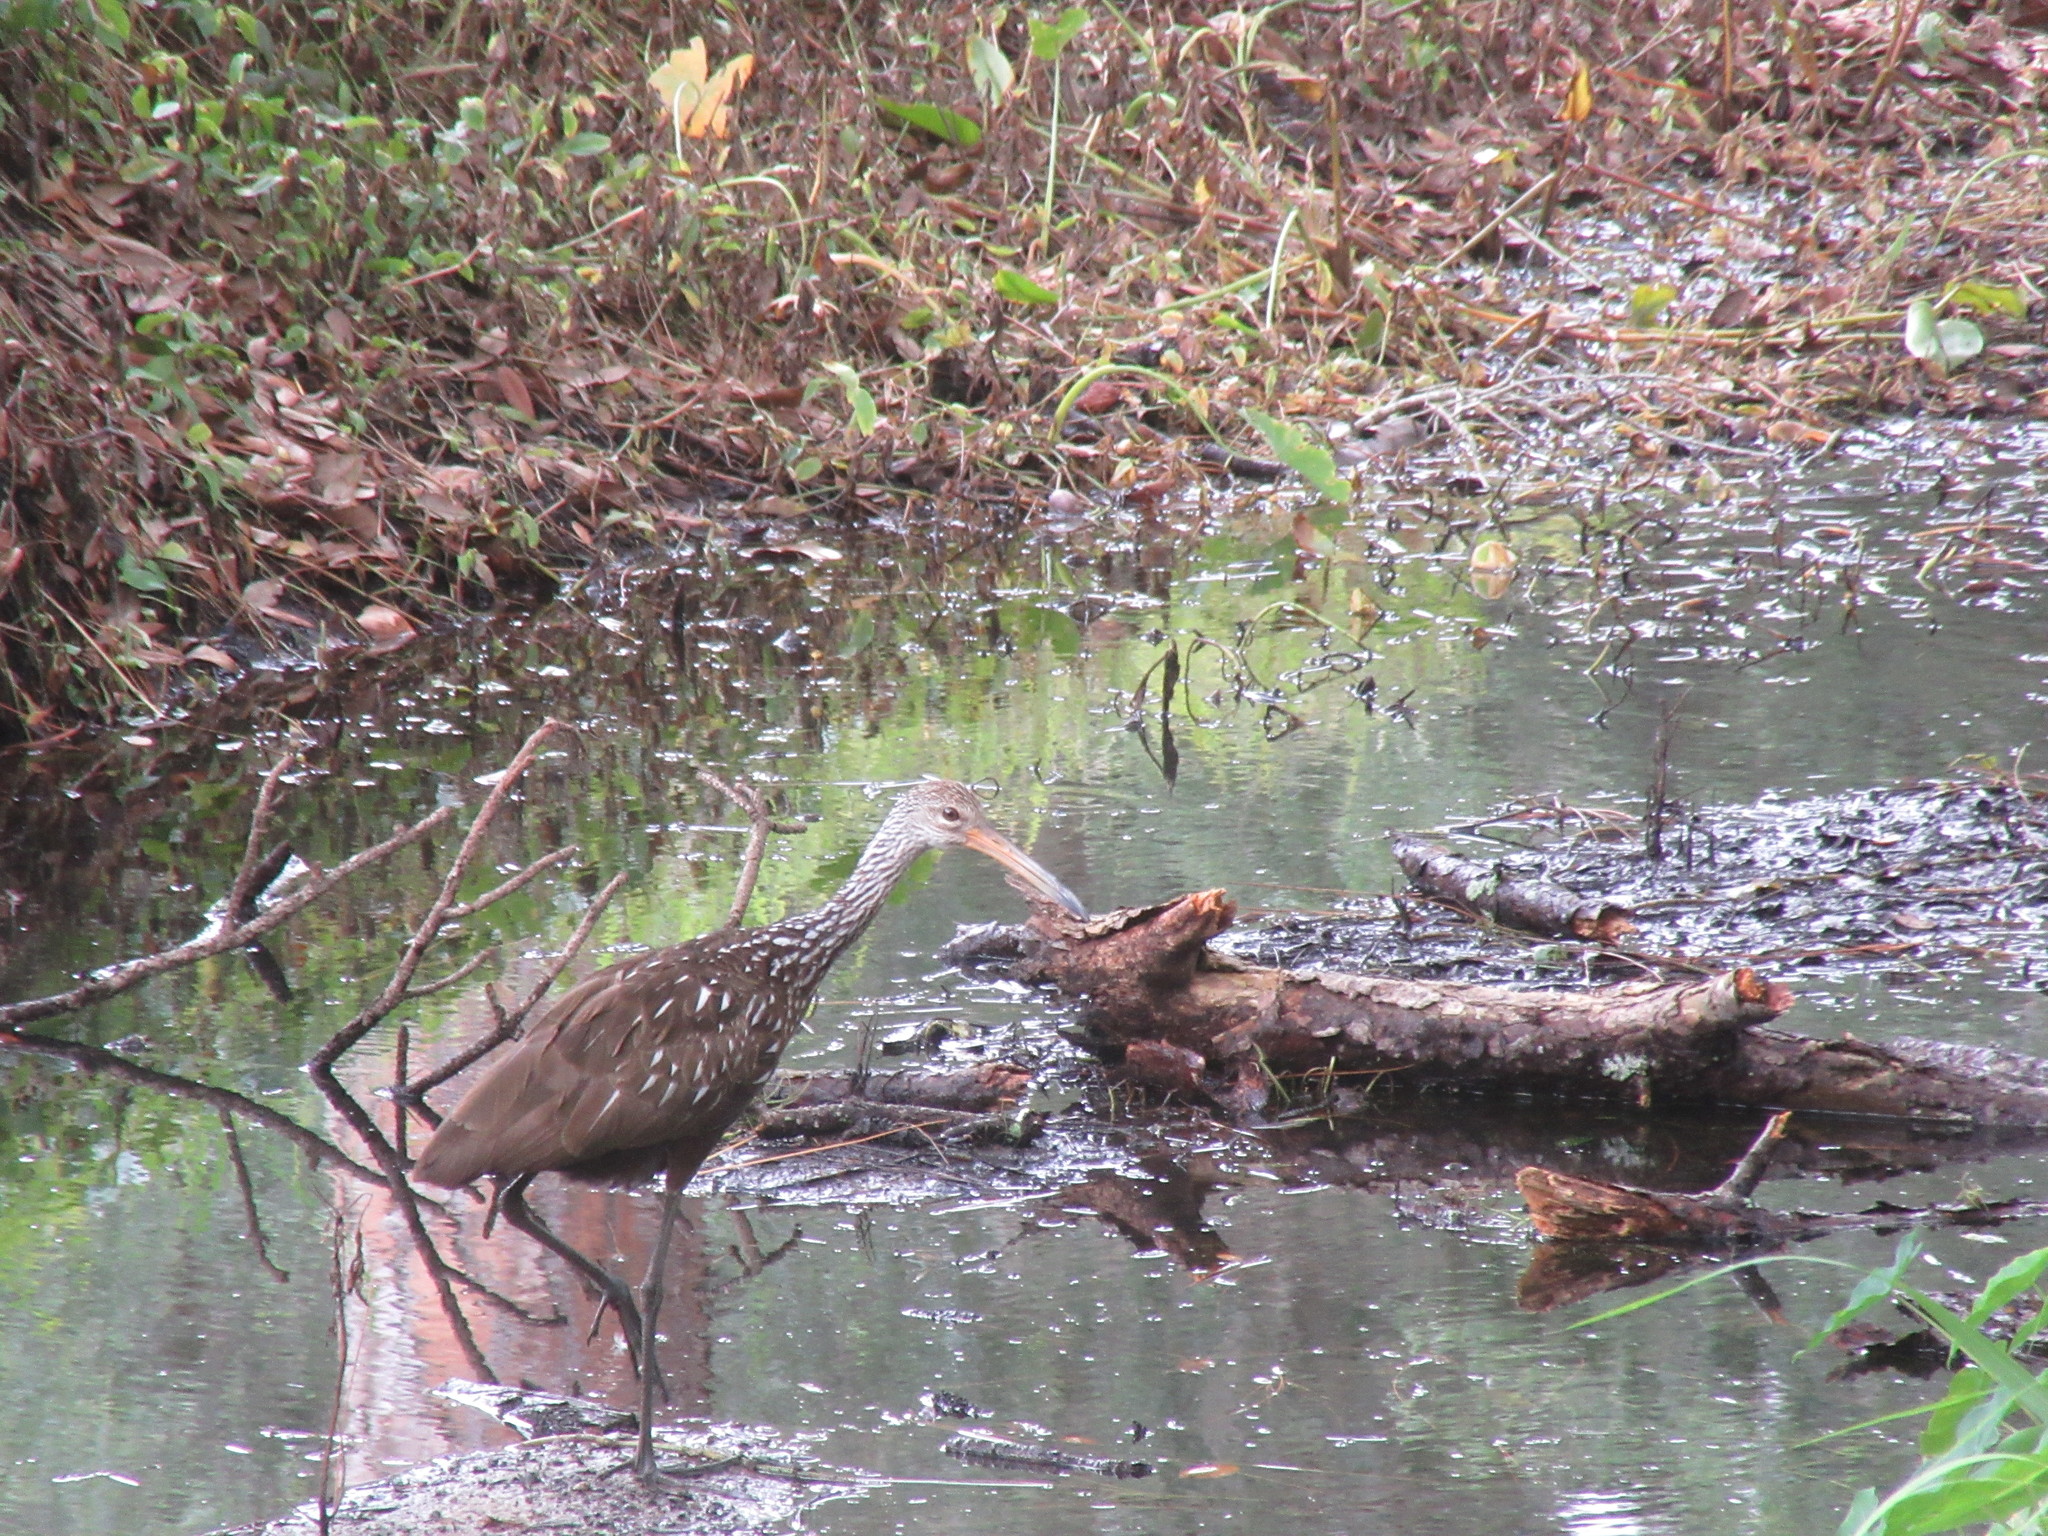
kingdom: Animalia
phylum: Chordata
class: Aves
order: Gruiformes
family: Aramidae
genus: Aramus
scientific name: Aramus guarauna
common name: Limpkin
